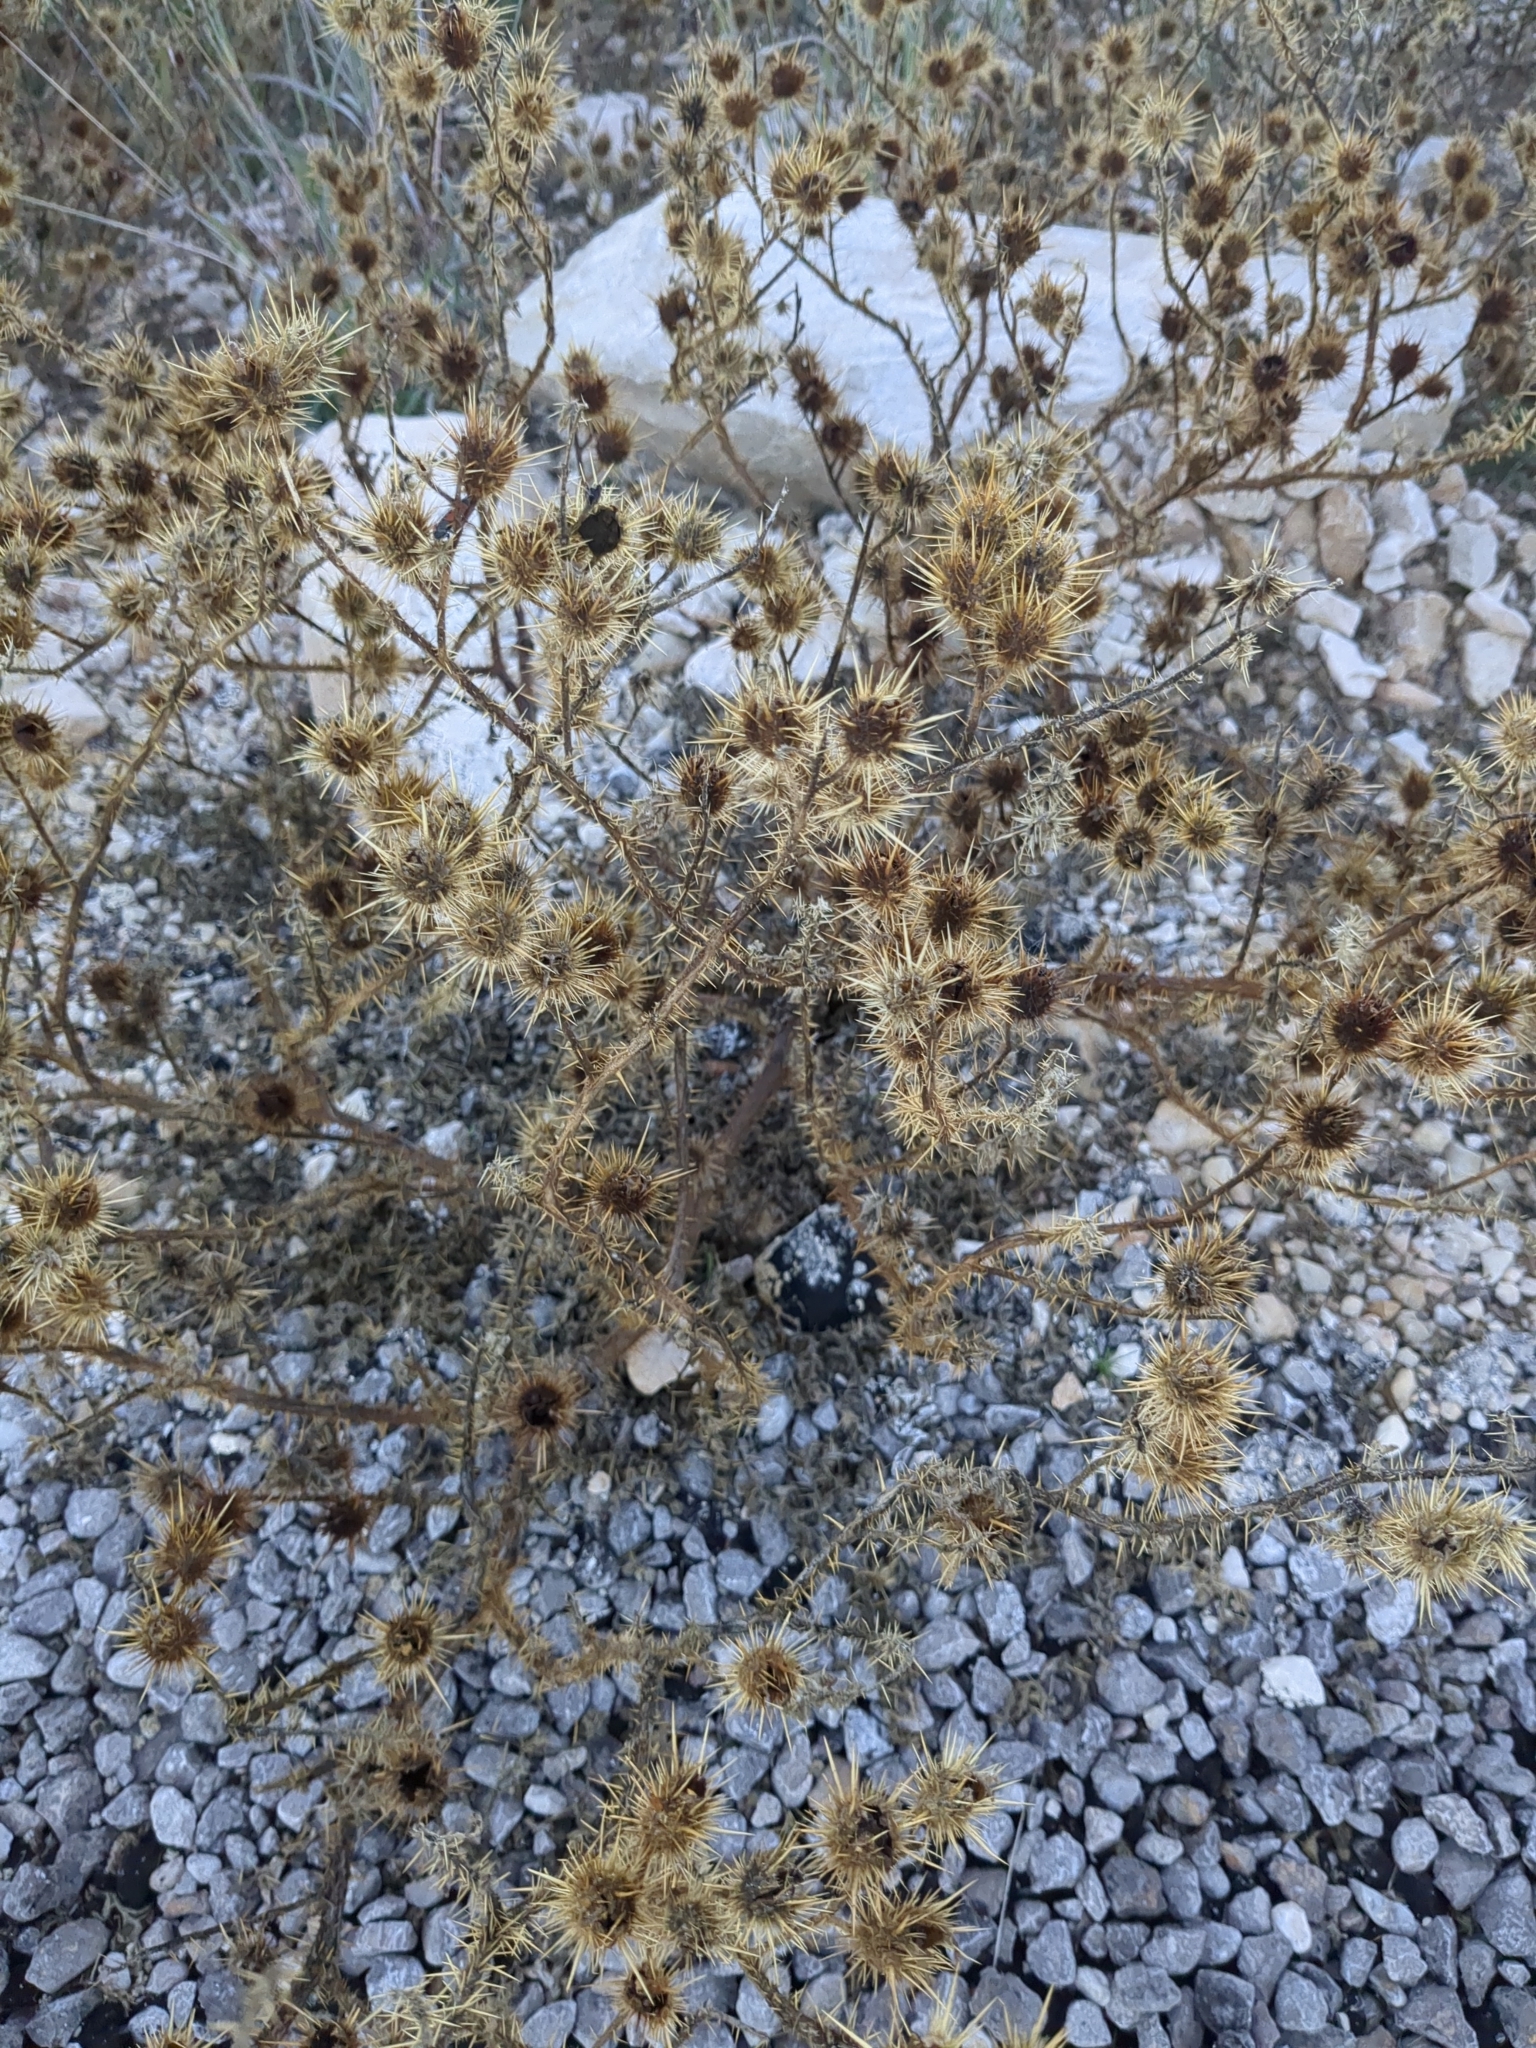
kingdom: Plantae
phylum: Tracheophyta
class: Magnoliopsida
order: Solanales
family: Solanaceae
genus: Solanum
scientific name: Solanum angustifolium
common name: Buffalobur nightshade
